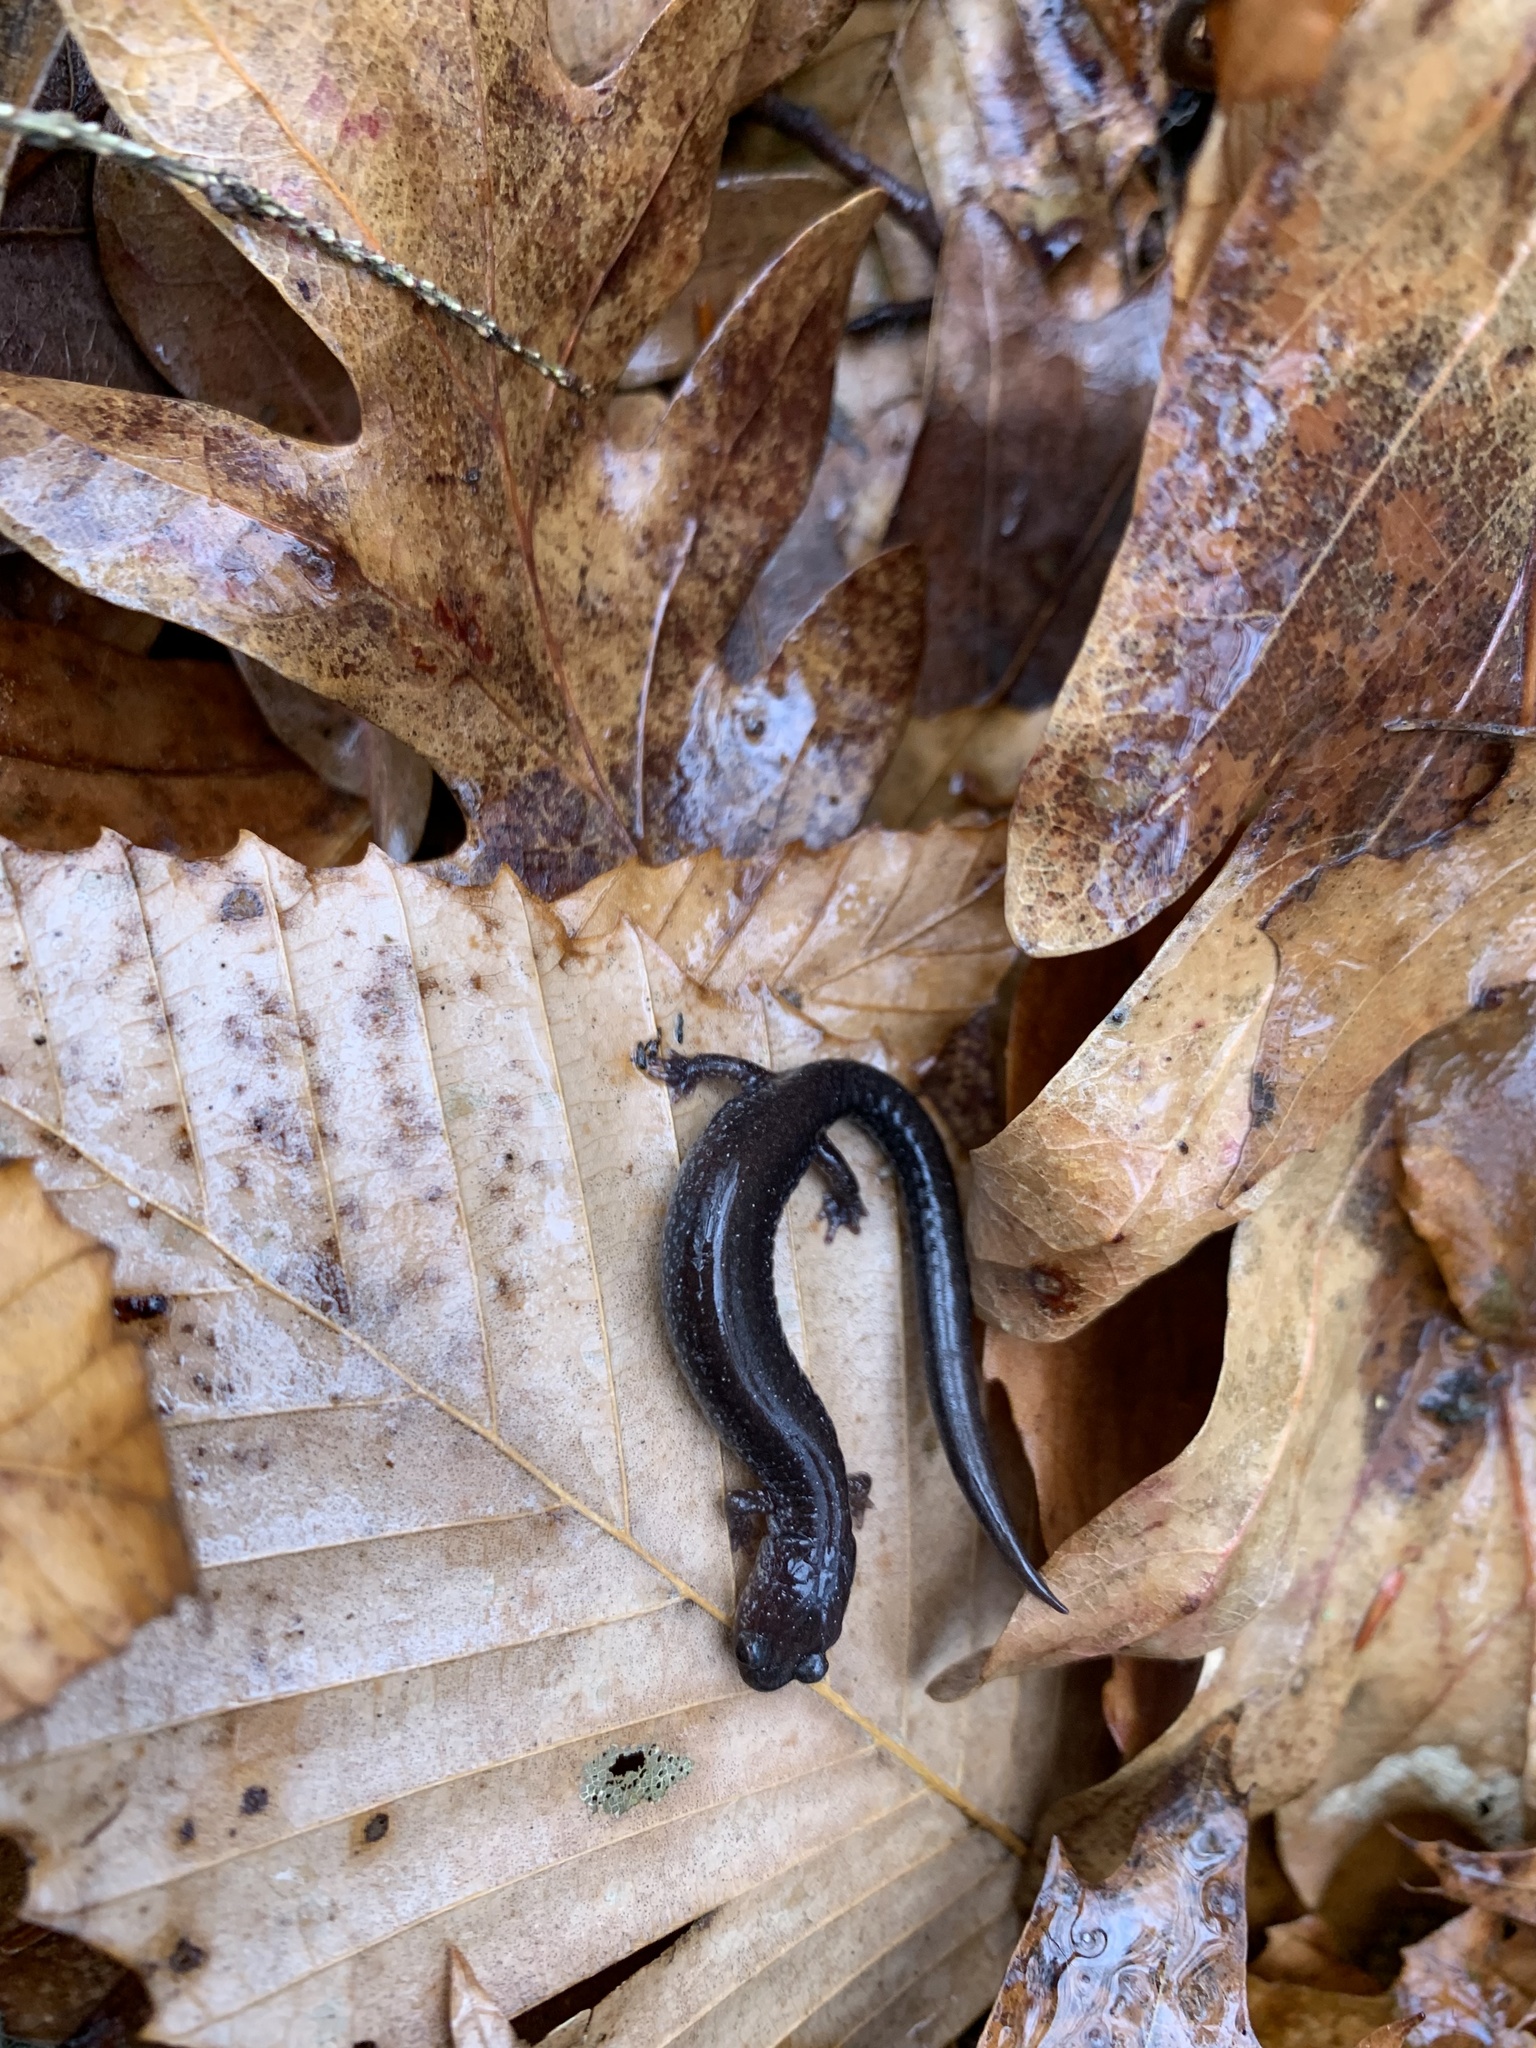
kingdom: Animalia
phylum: Chordata
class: Amphibia
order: Caudata
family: Plethodontidae
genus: Plethodon
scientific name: Plethodon cinereus
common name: Redback salamander
